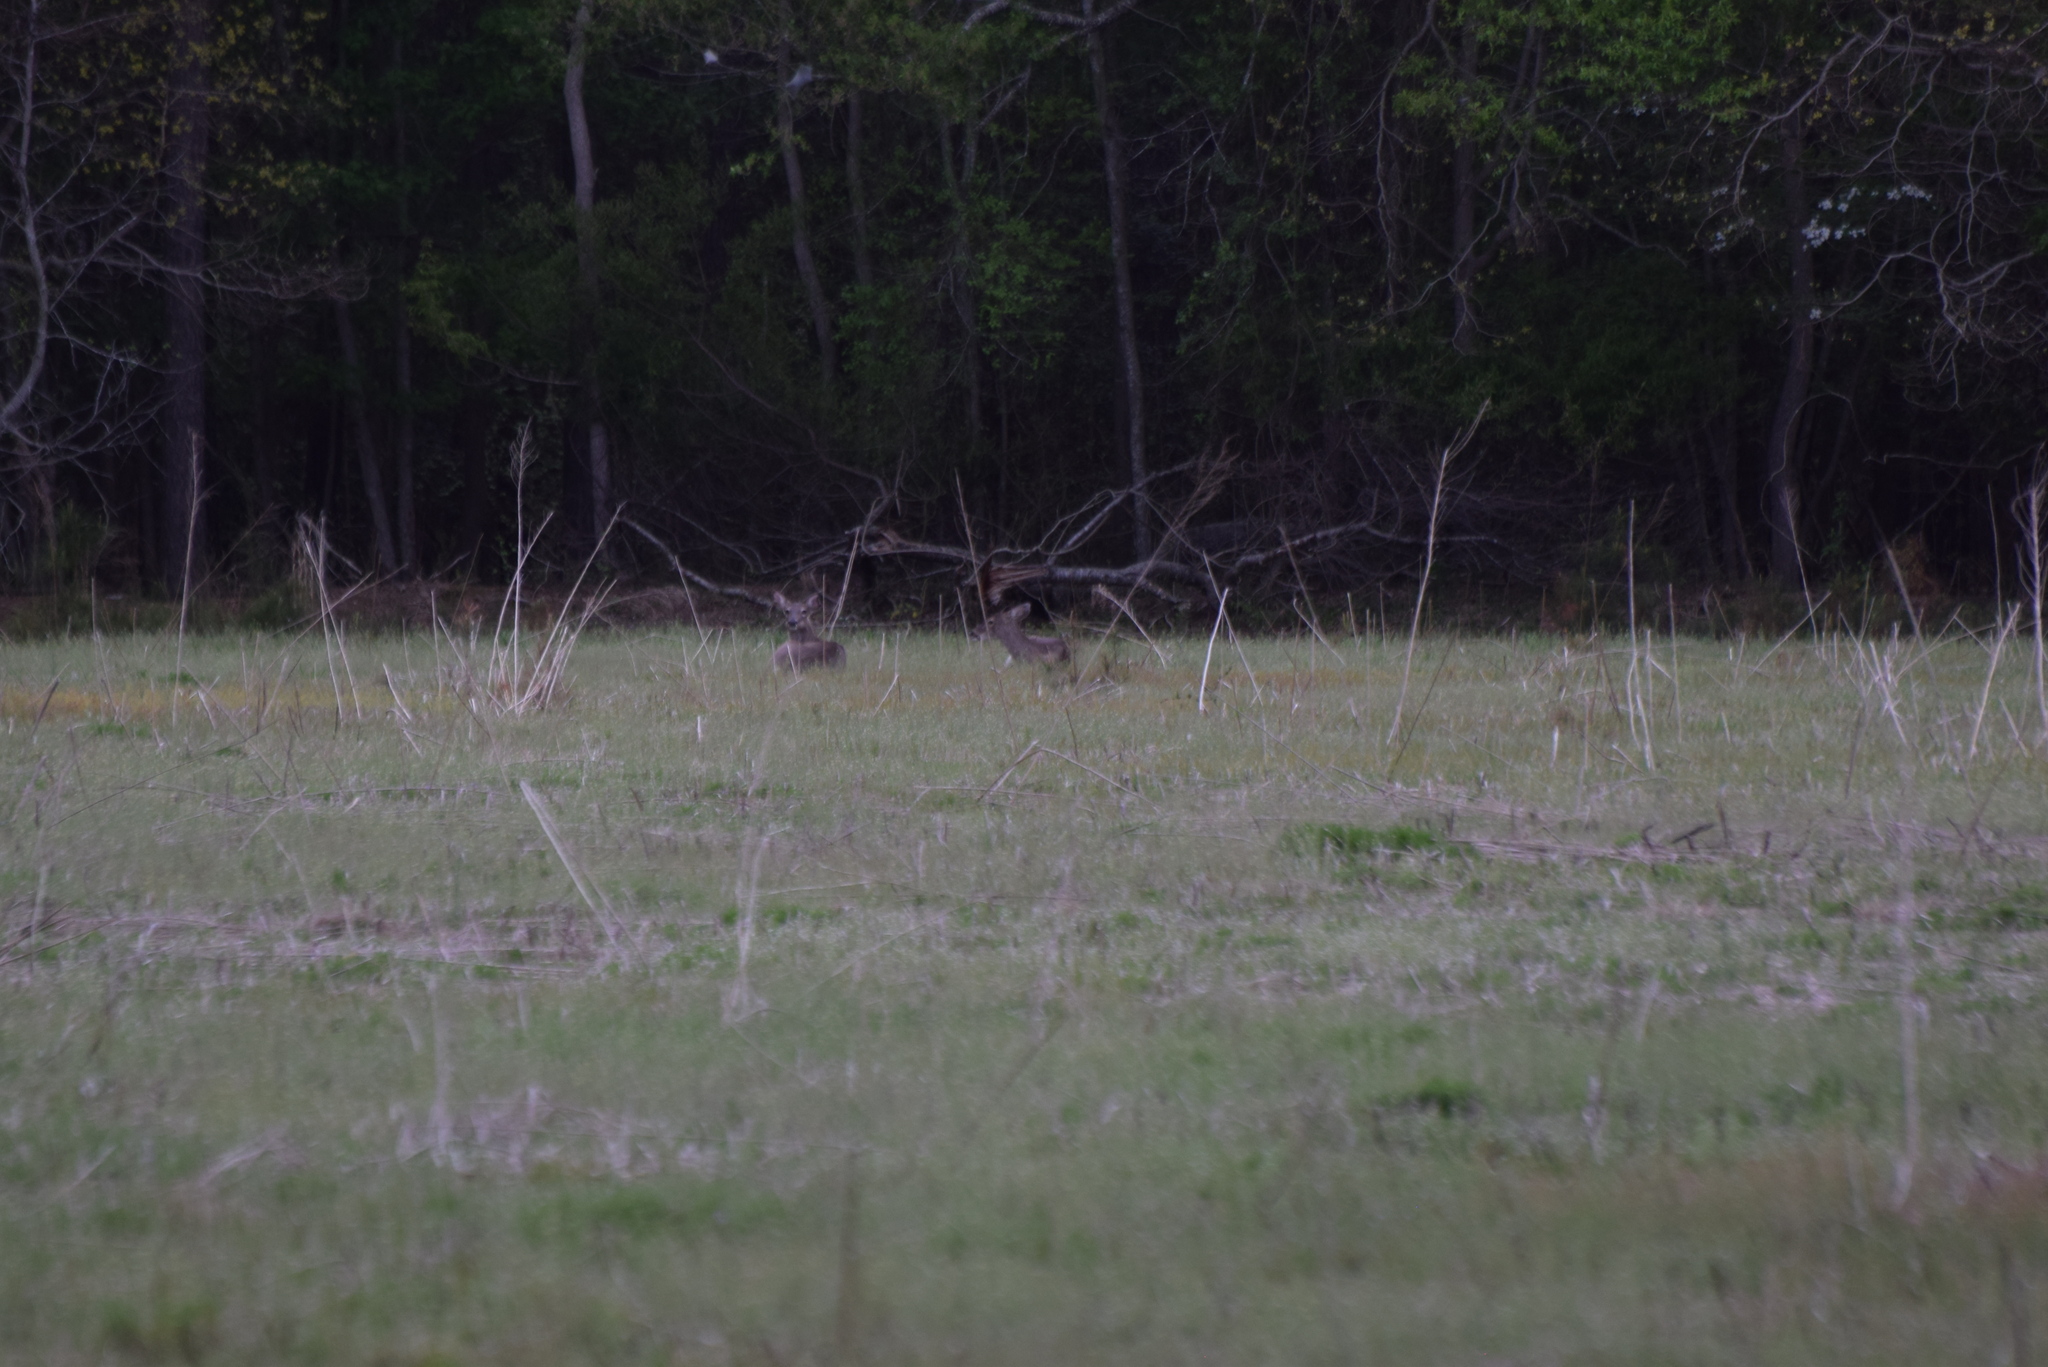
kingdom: Animalia
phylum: Chordata
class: Mammalia
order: Artiodactyla
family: Cervidae
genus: Odocoileus
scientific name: Odocoileus virginianus
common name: White-tailed deer
